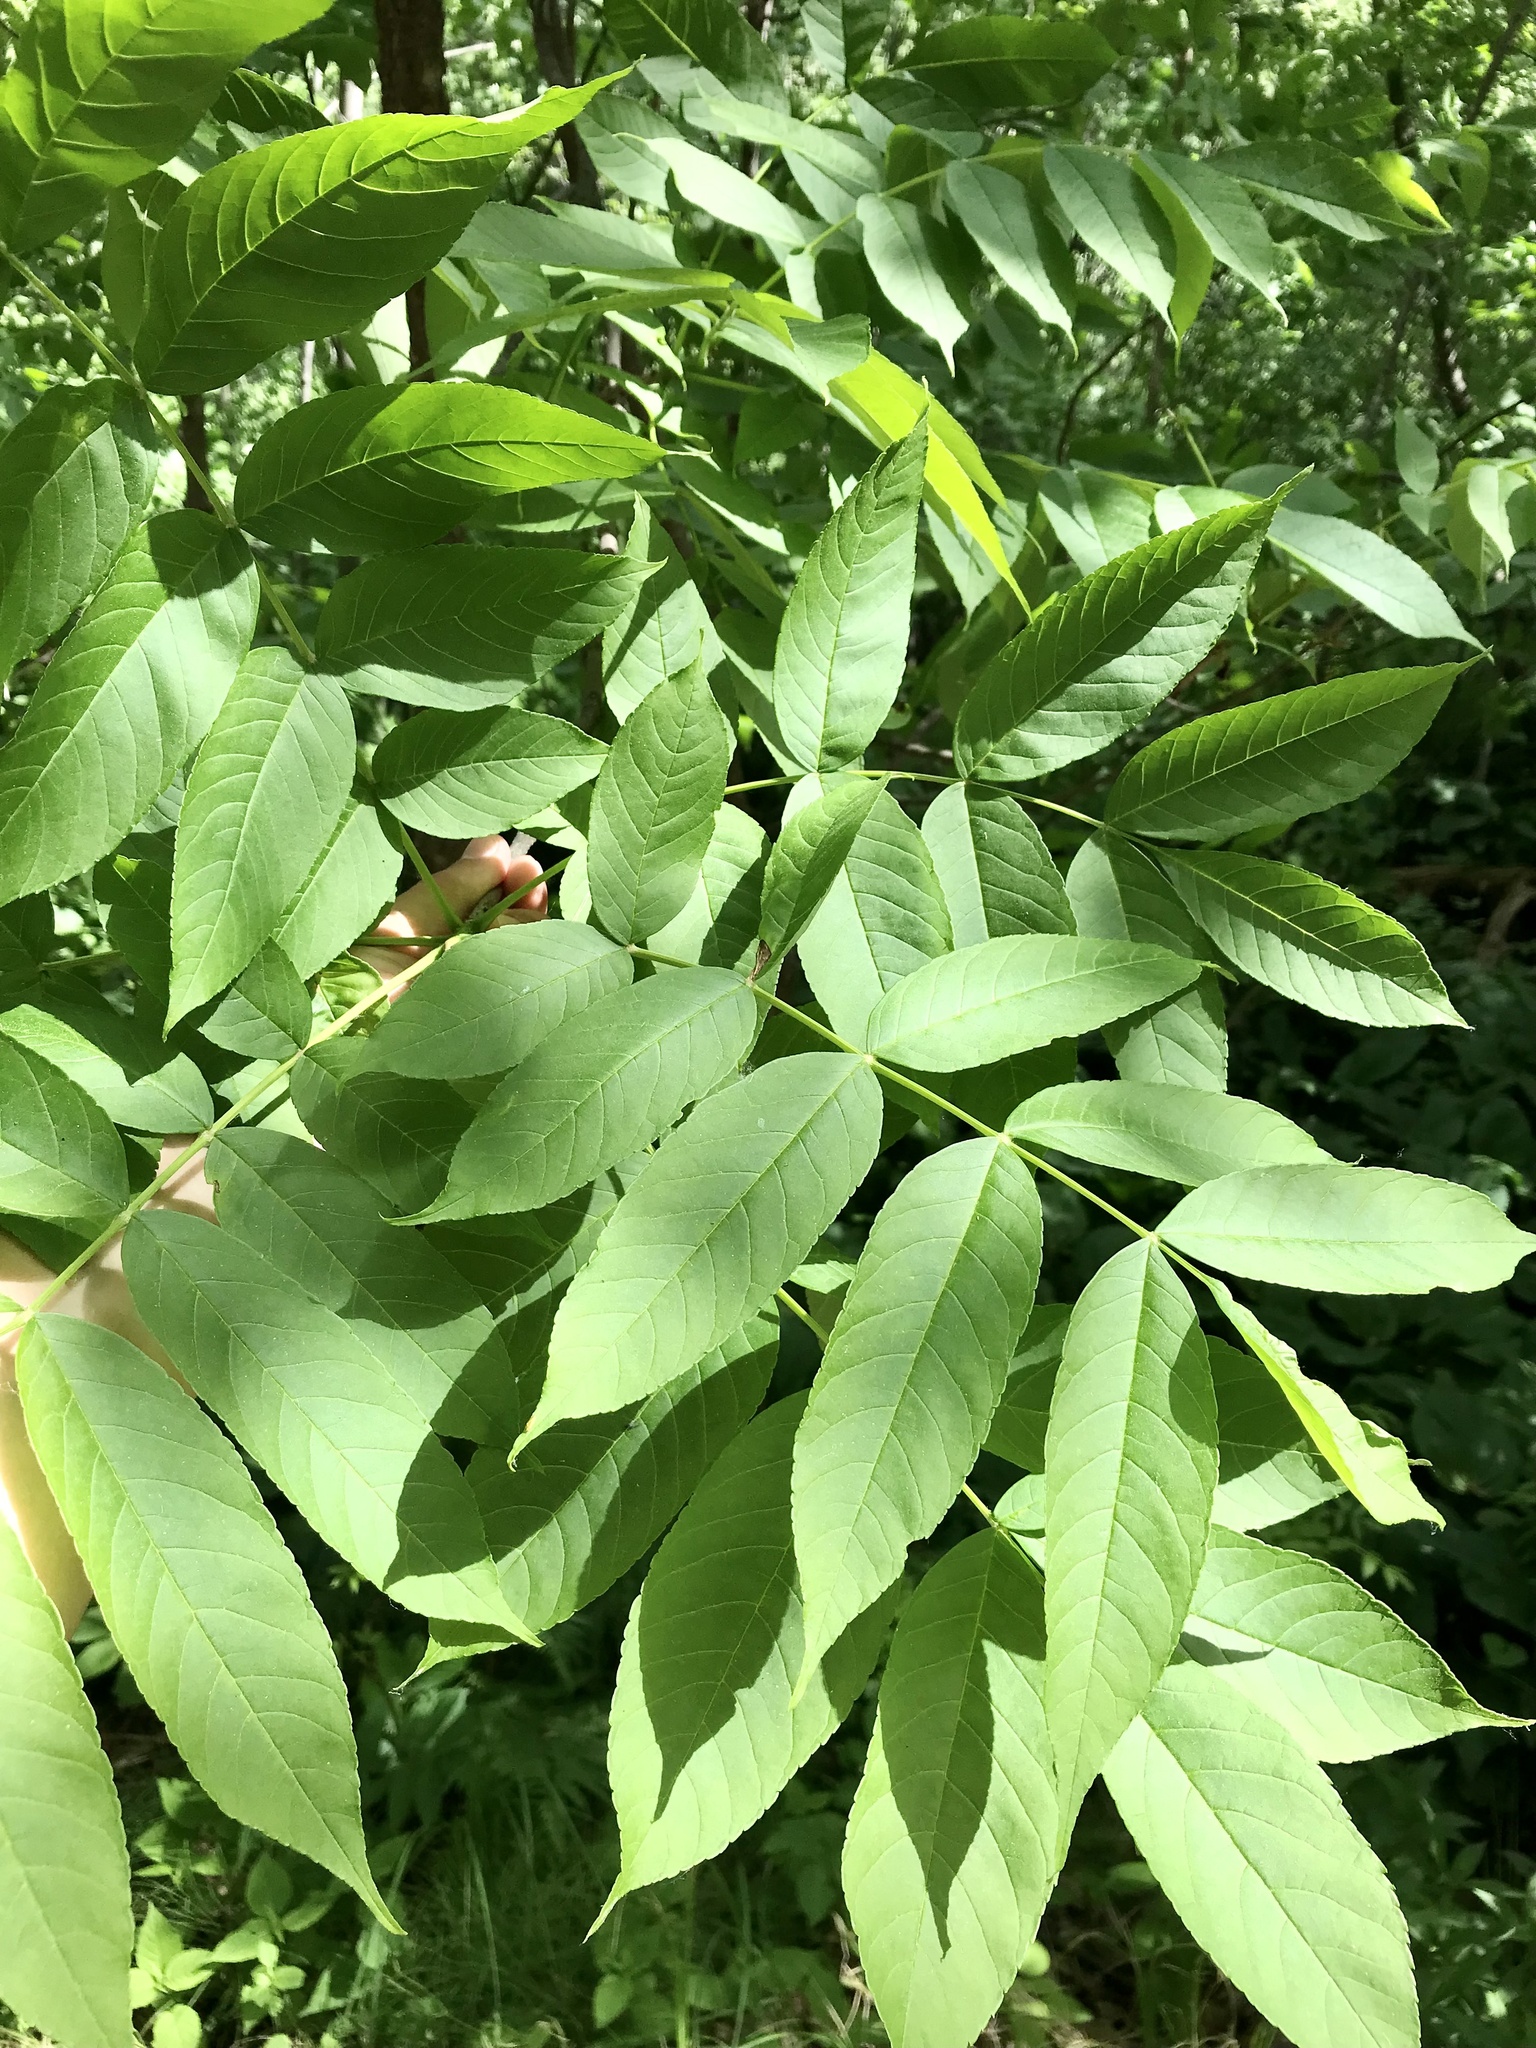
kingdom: Plantae
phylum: Tracheophyta
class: Magnoliopsida
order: Lamiales
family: Oleaceae
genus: Fraxinus
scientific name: Fraxinus nigra
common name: Black ash
